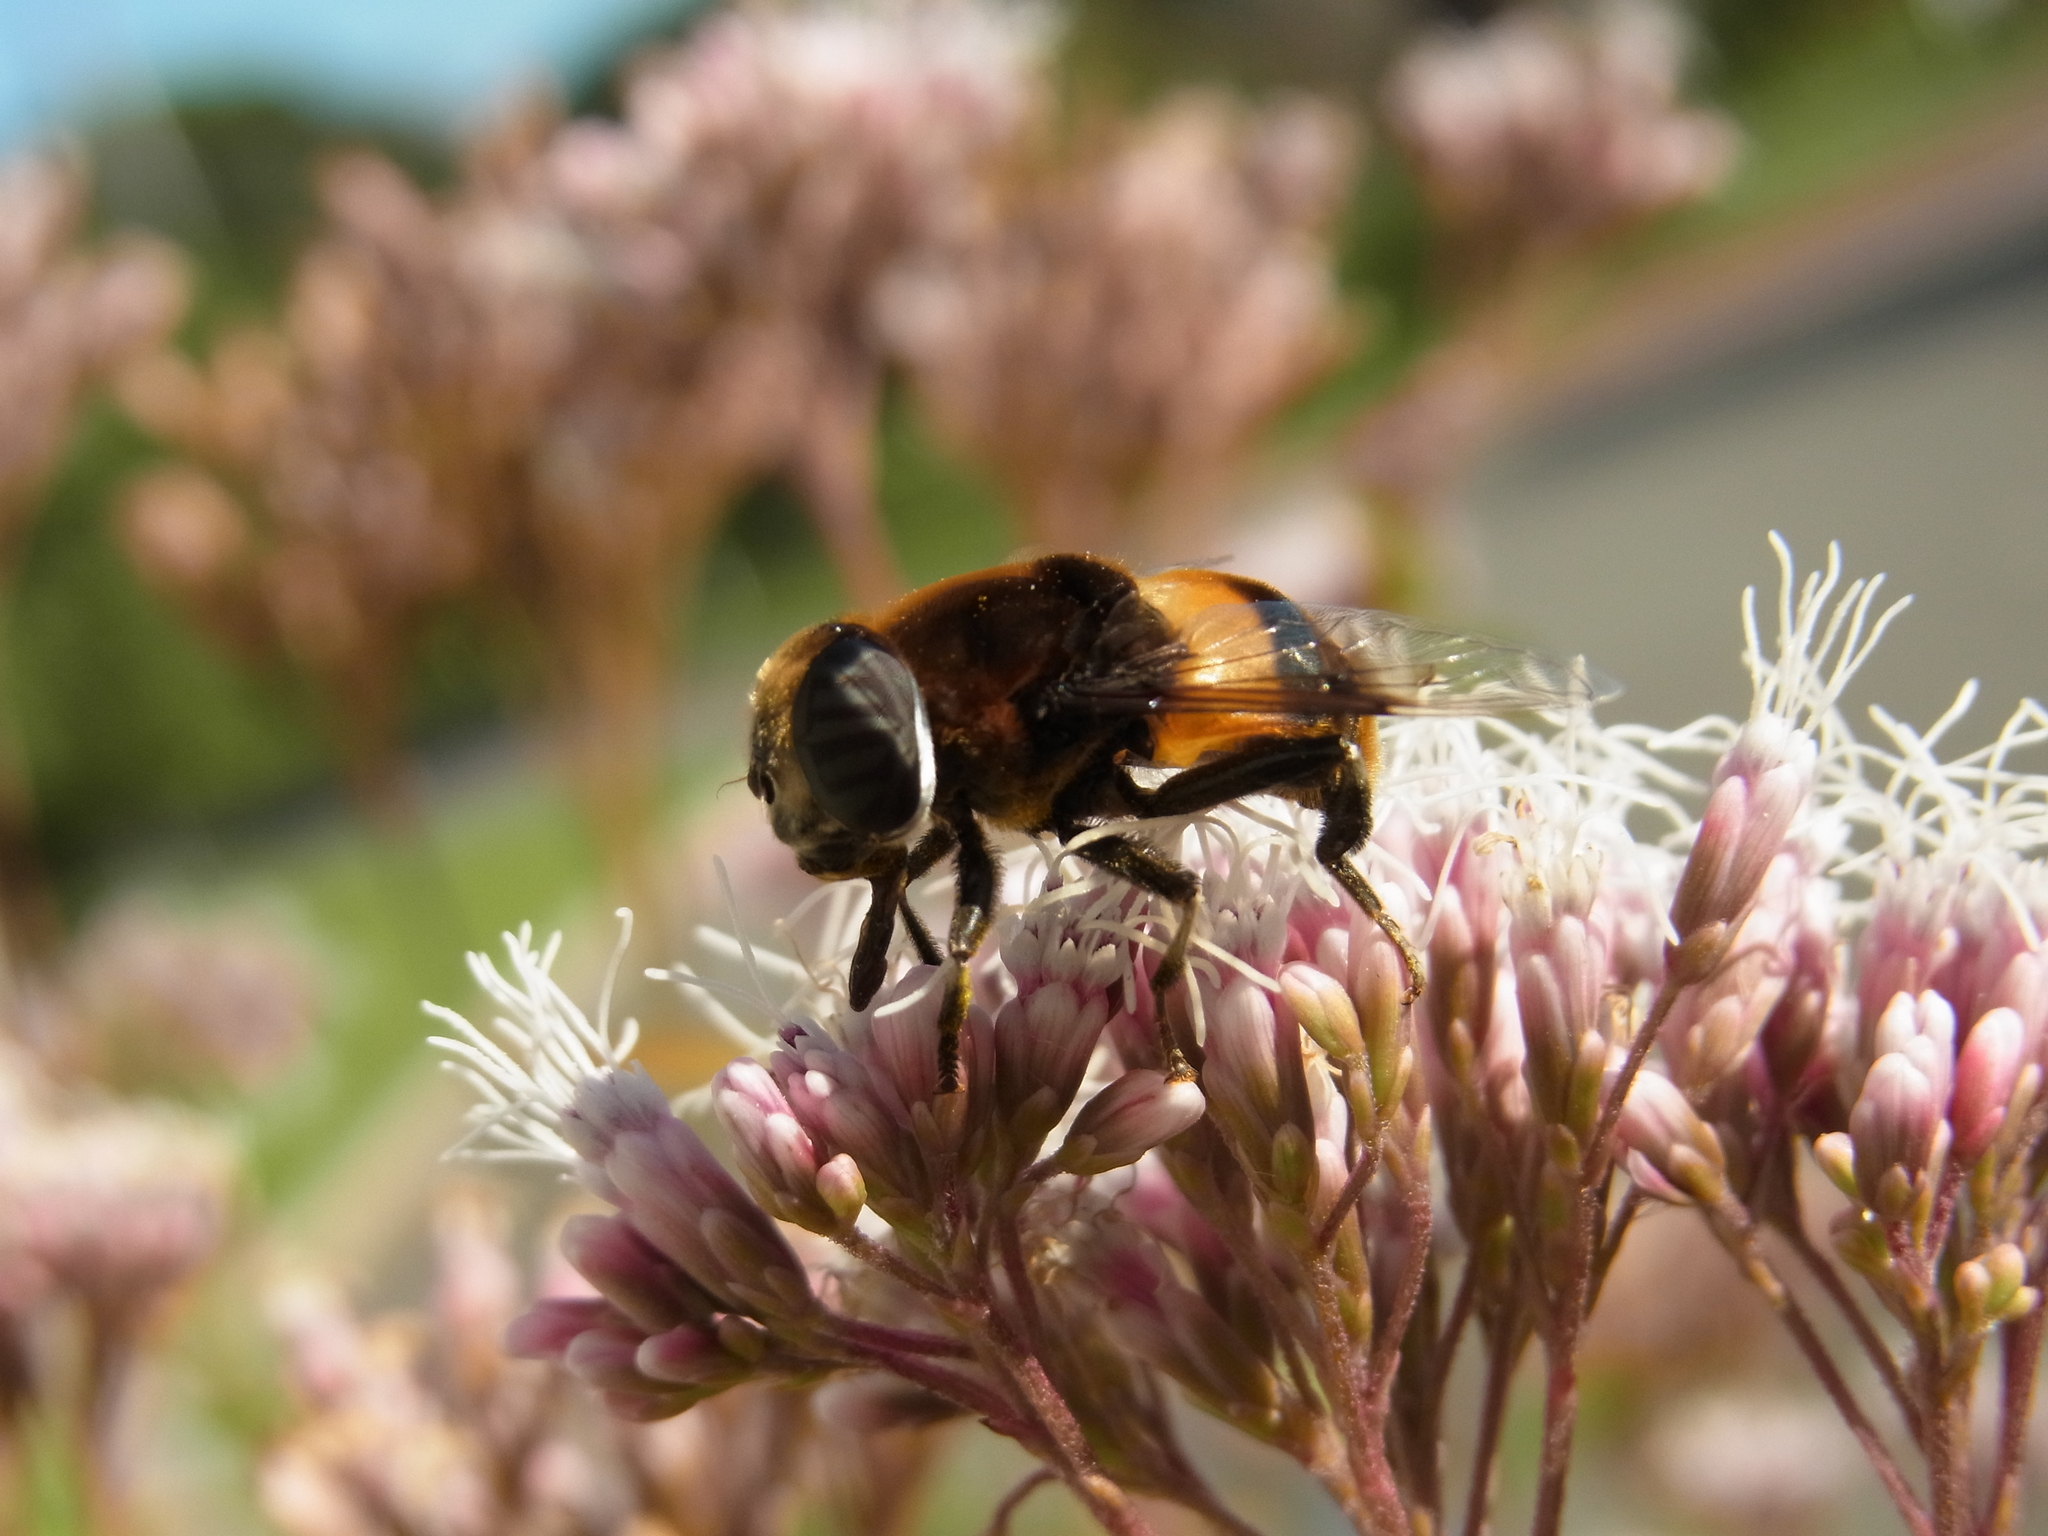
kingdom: Animalia
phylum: Arthropoda
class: Insecta
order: Diptera
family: Syrphidae
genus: Phytomia
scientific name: Phytomia zonata
